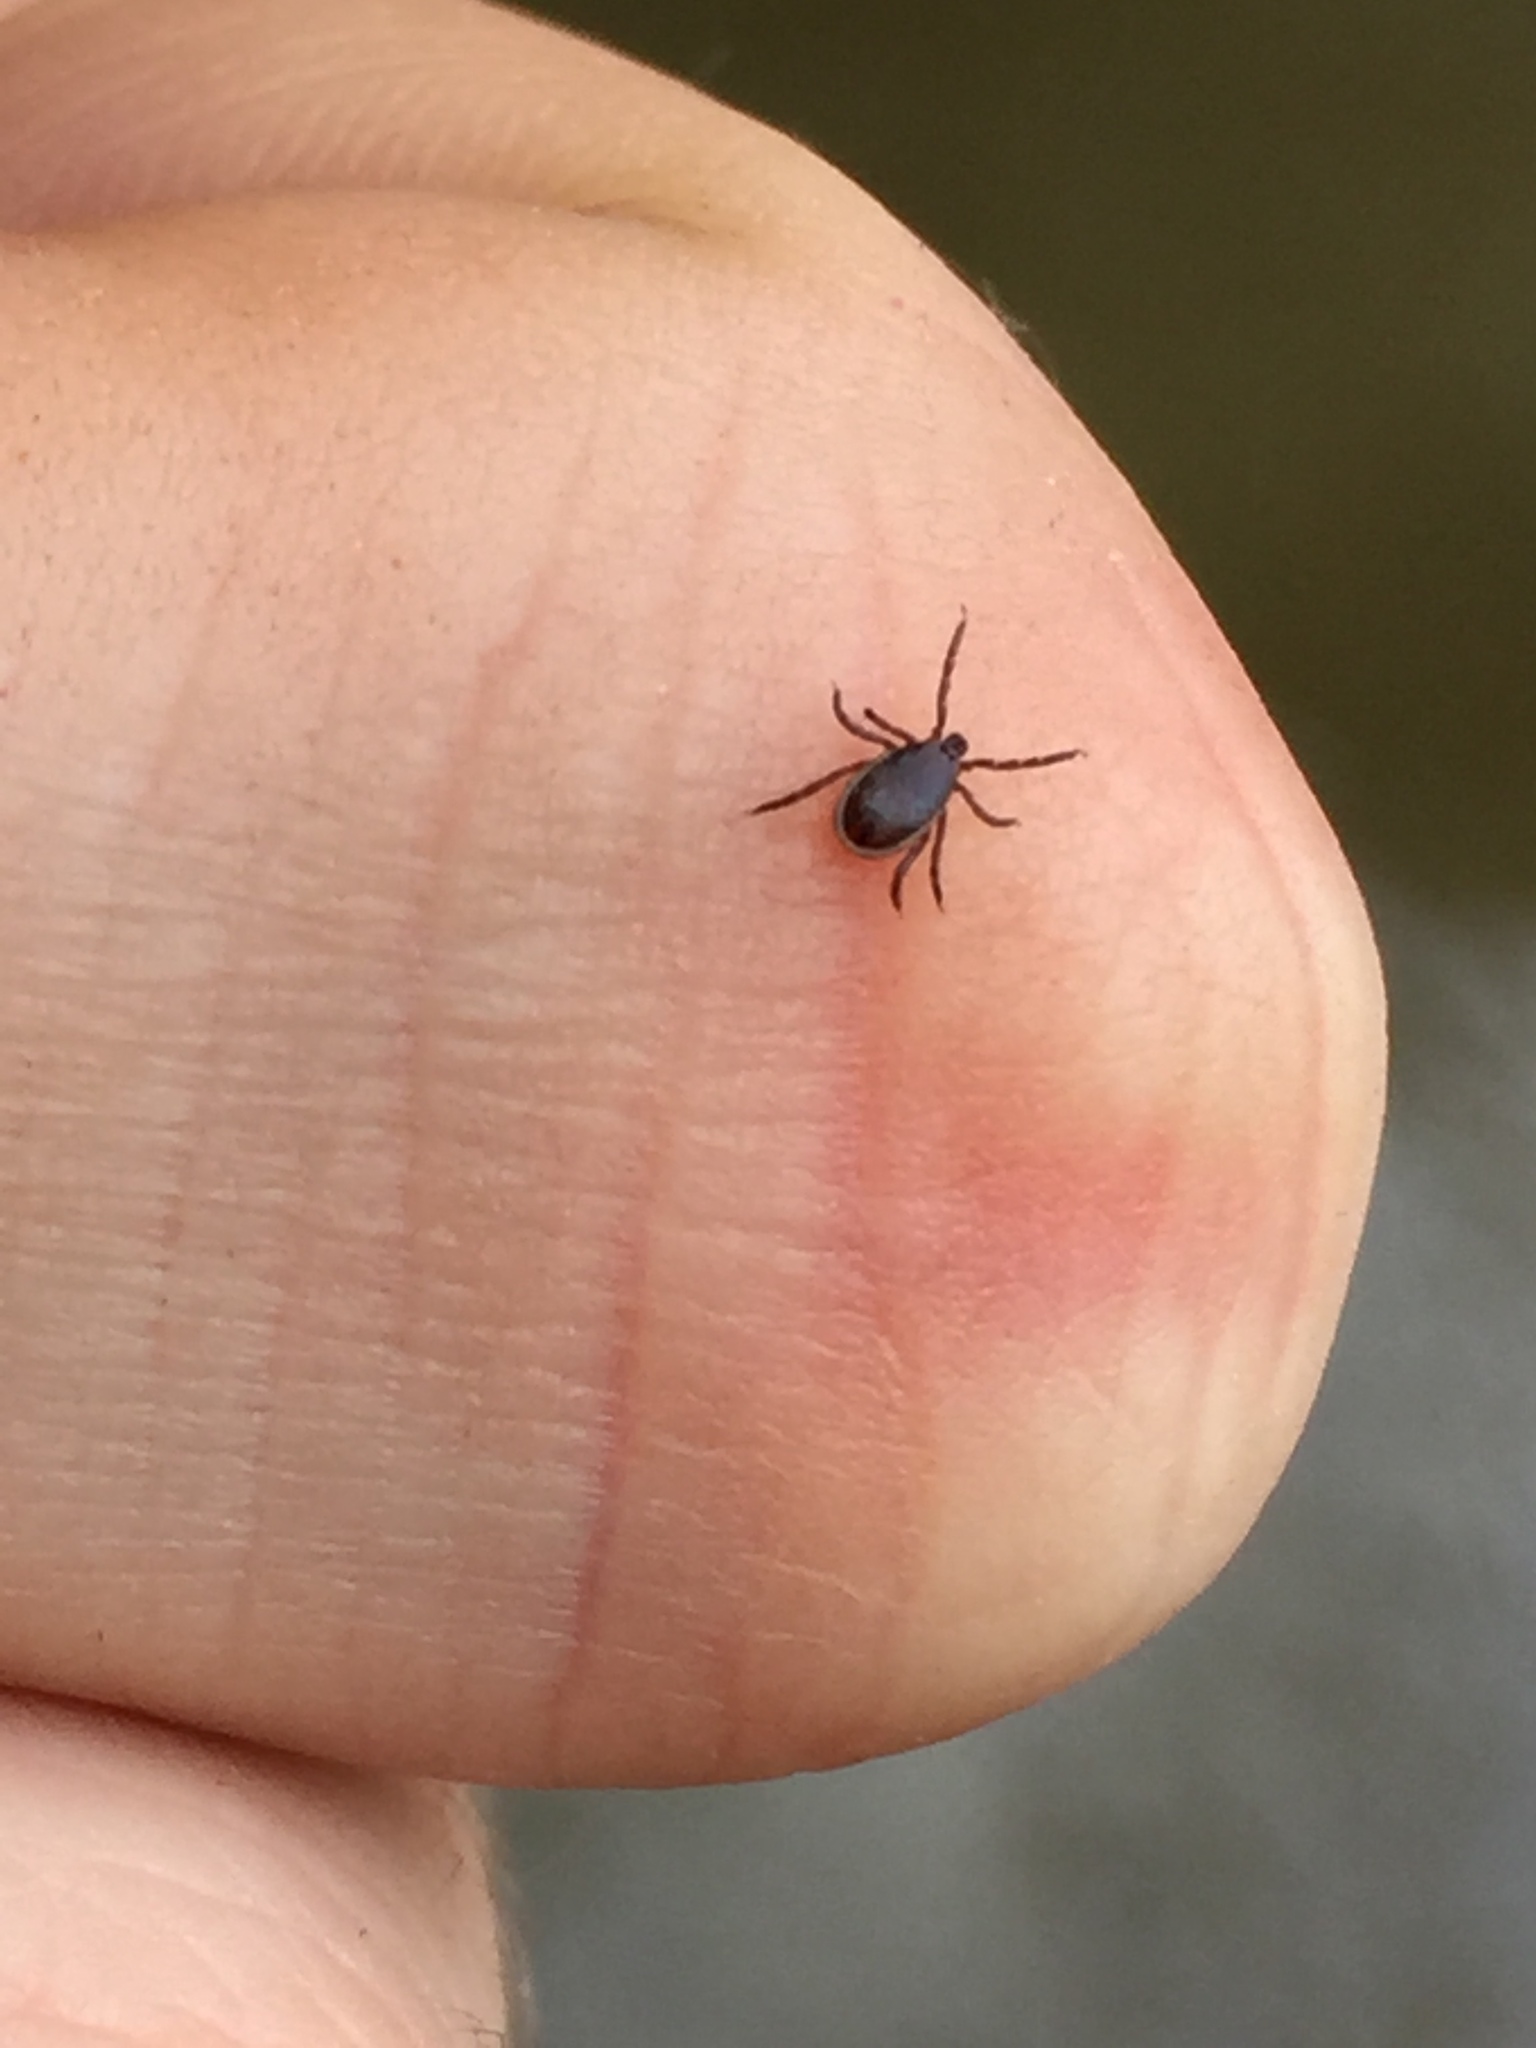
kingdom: Animalia
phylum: Arthropoda
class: Arachnida
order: Ixodida
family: Ixodidae
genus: Ixodes
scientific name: Ixodes scapularis
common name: Black legged tick
